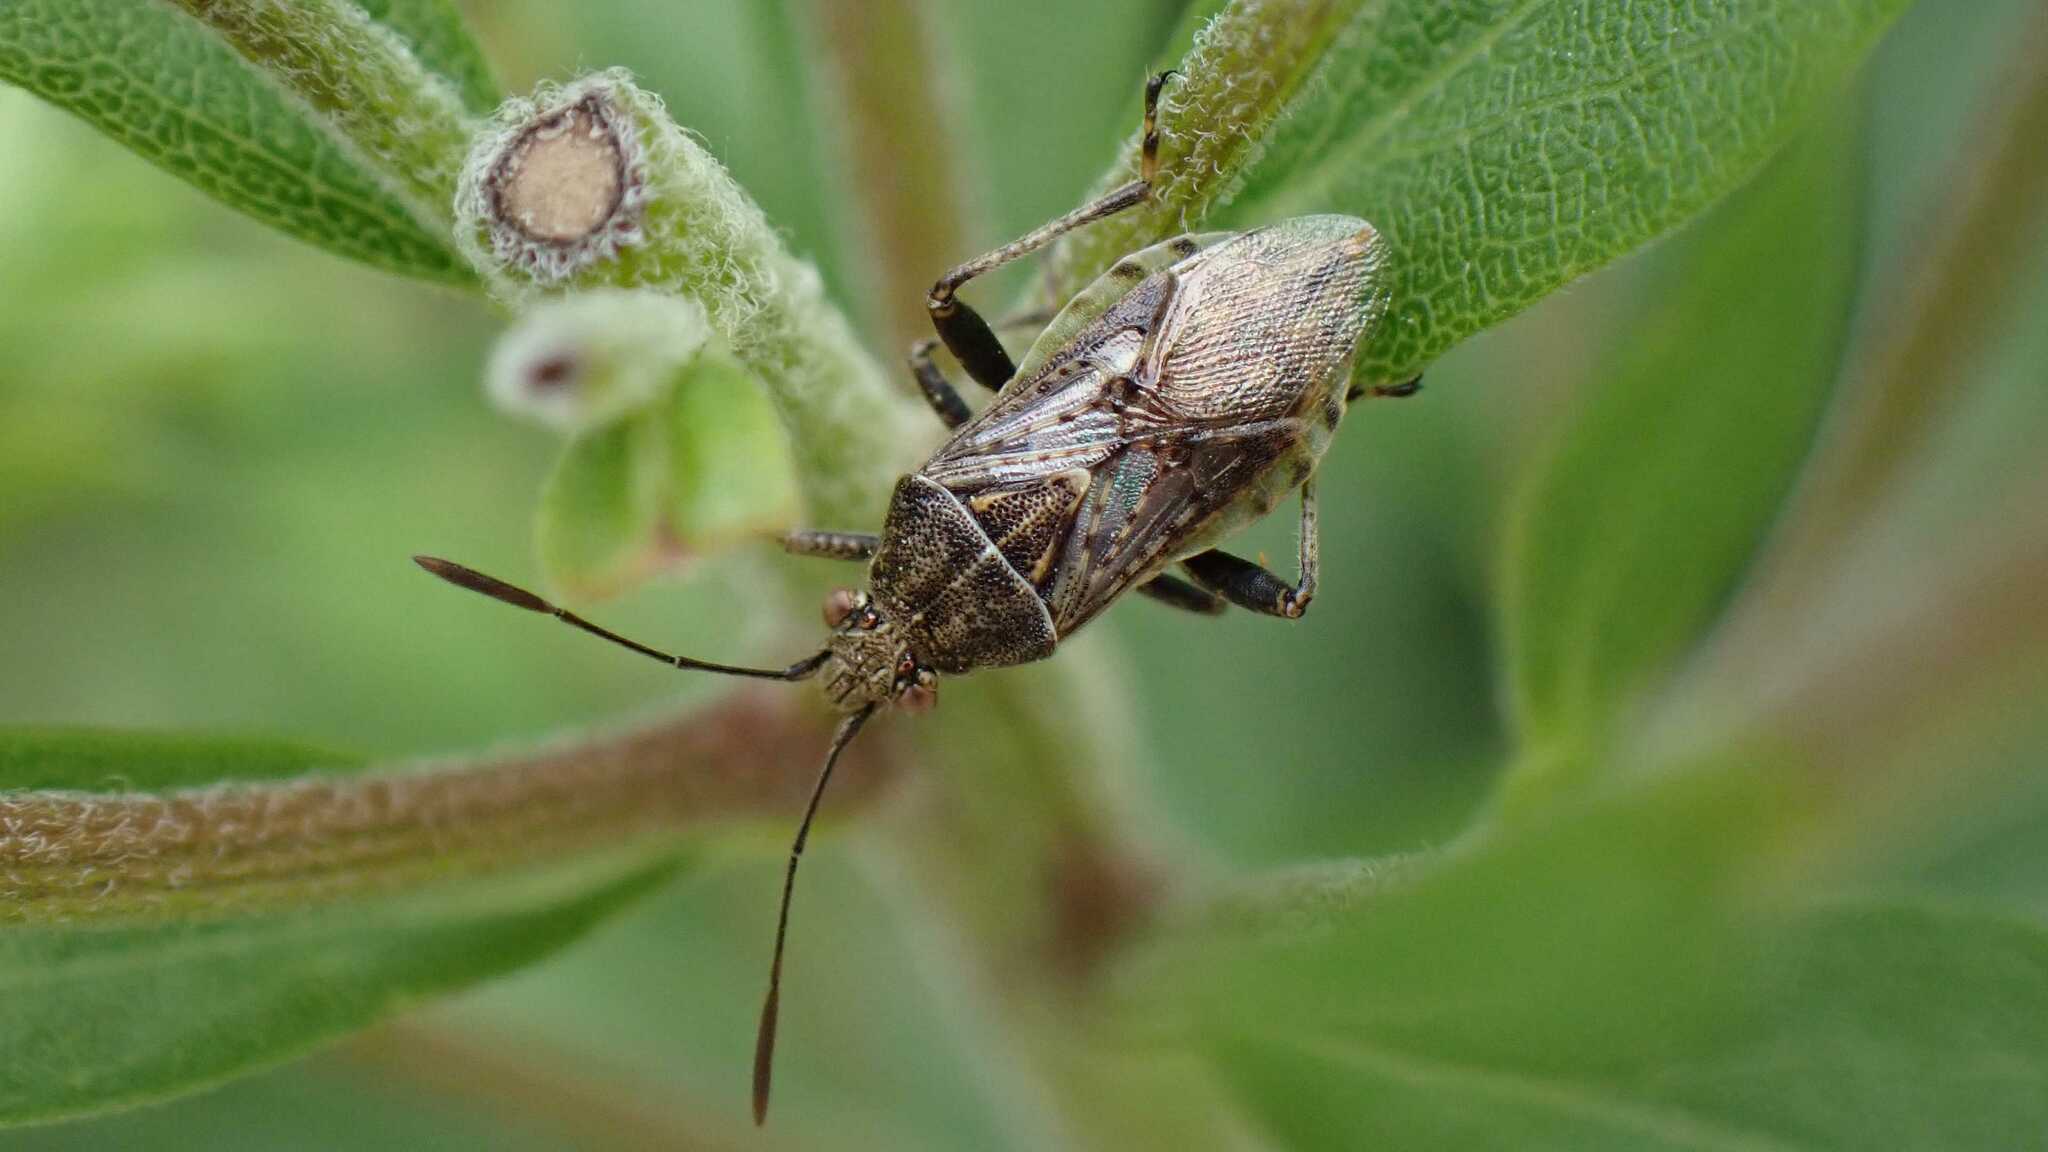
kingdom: Animalia
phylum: Arthropoda
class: Insecta
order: Hemiptera
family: Rhopalidae
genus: Stictopleurus
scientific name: Stictopleurus punctatonervosus
